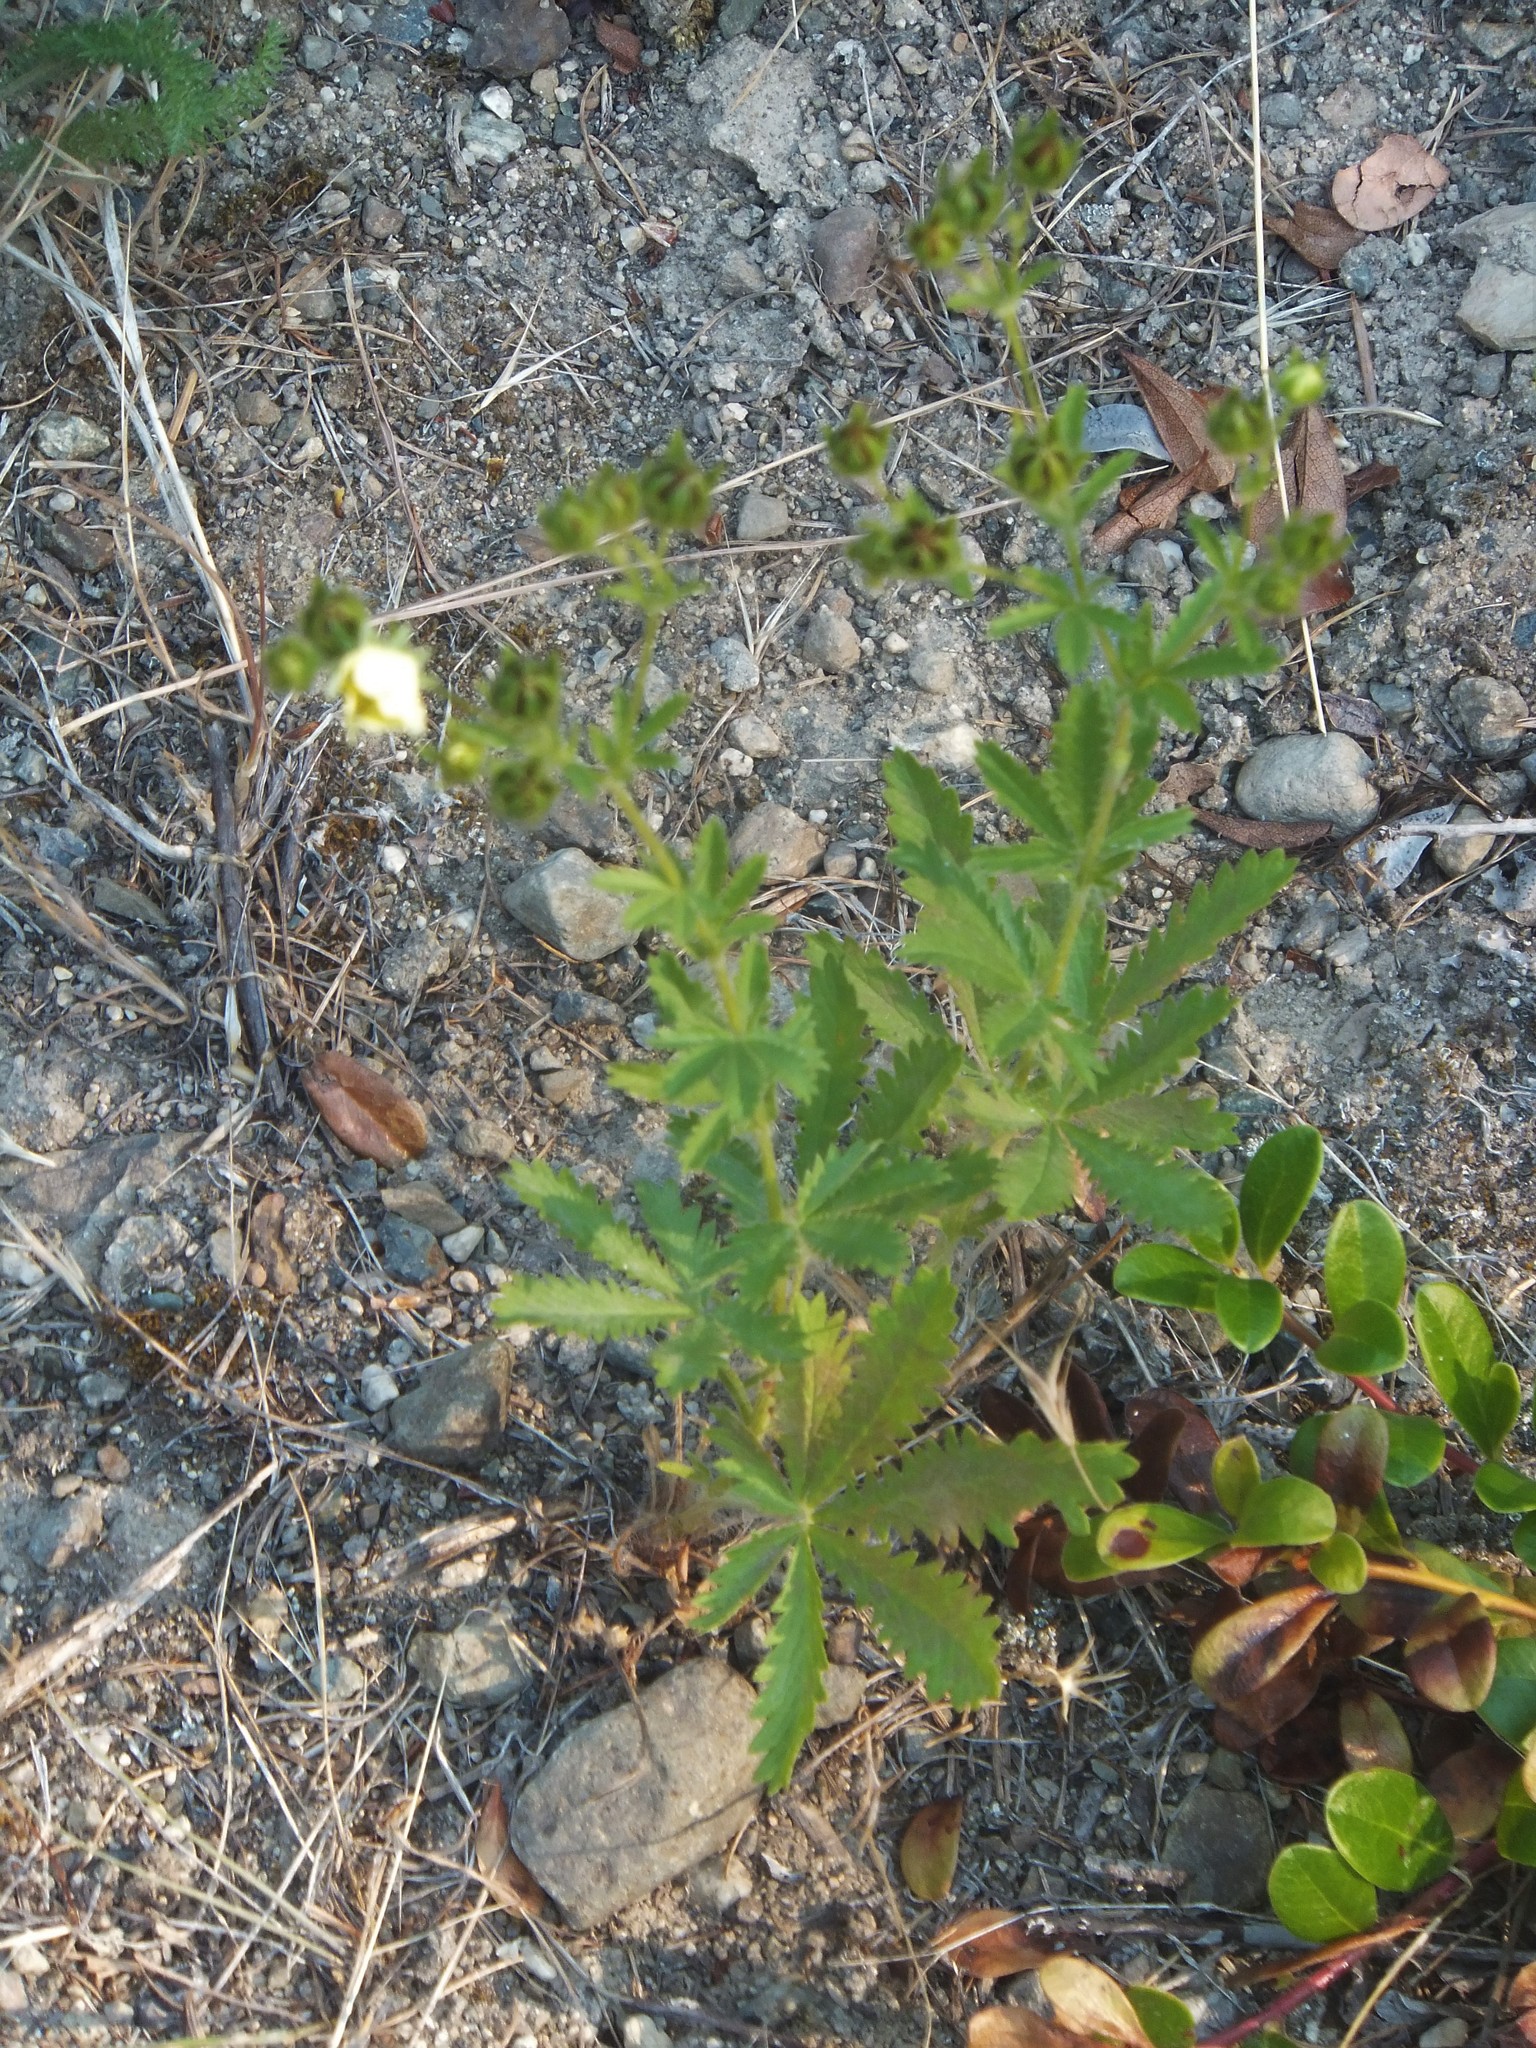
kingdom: Plantae
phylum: Tracheophyta
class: Magnoliopsida
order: Rosales
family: Rosaceae
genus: Potentilla
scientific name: Potentilla recta
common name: Sulphur cinquefoil
